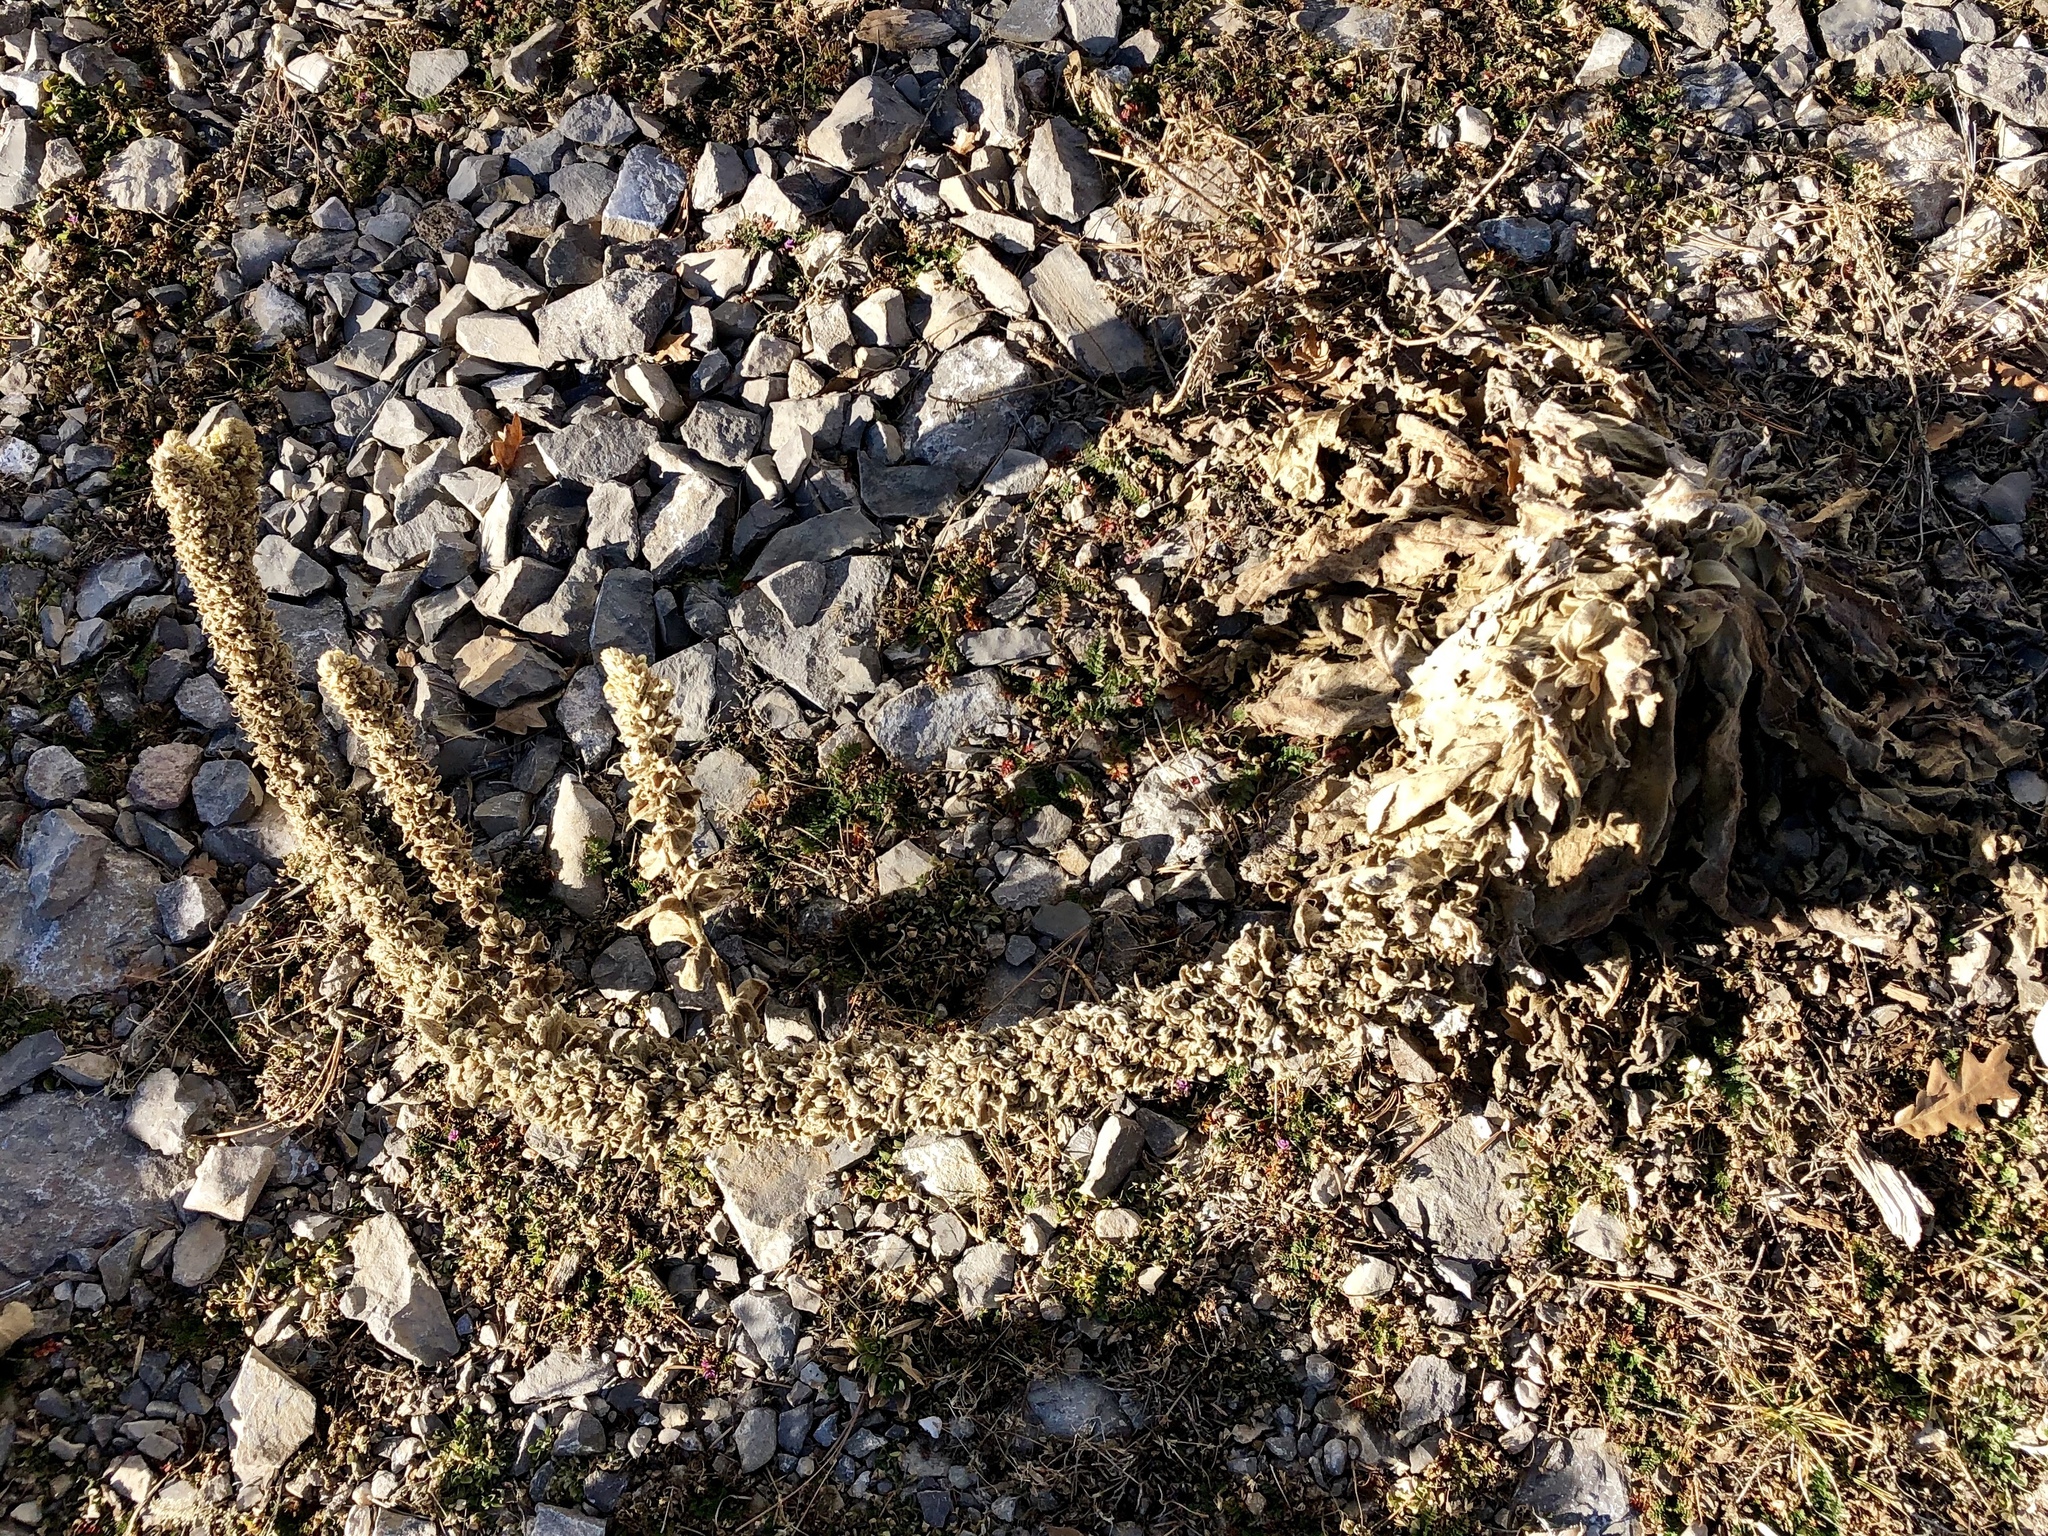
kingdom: Plantae
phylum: Tracheophyta
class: Magnoliopsida
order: Lamiales
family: Scrophulariaceae
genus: Verbascum
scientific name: Verbascum thapsus
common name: Common mullein
